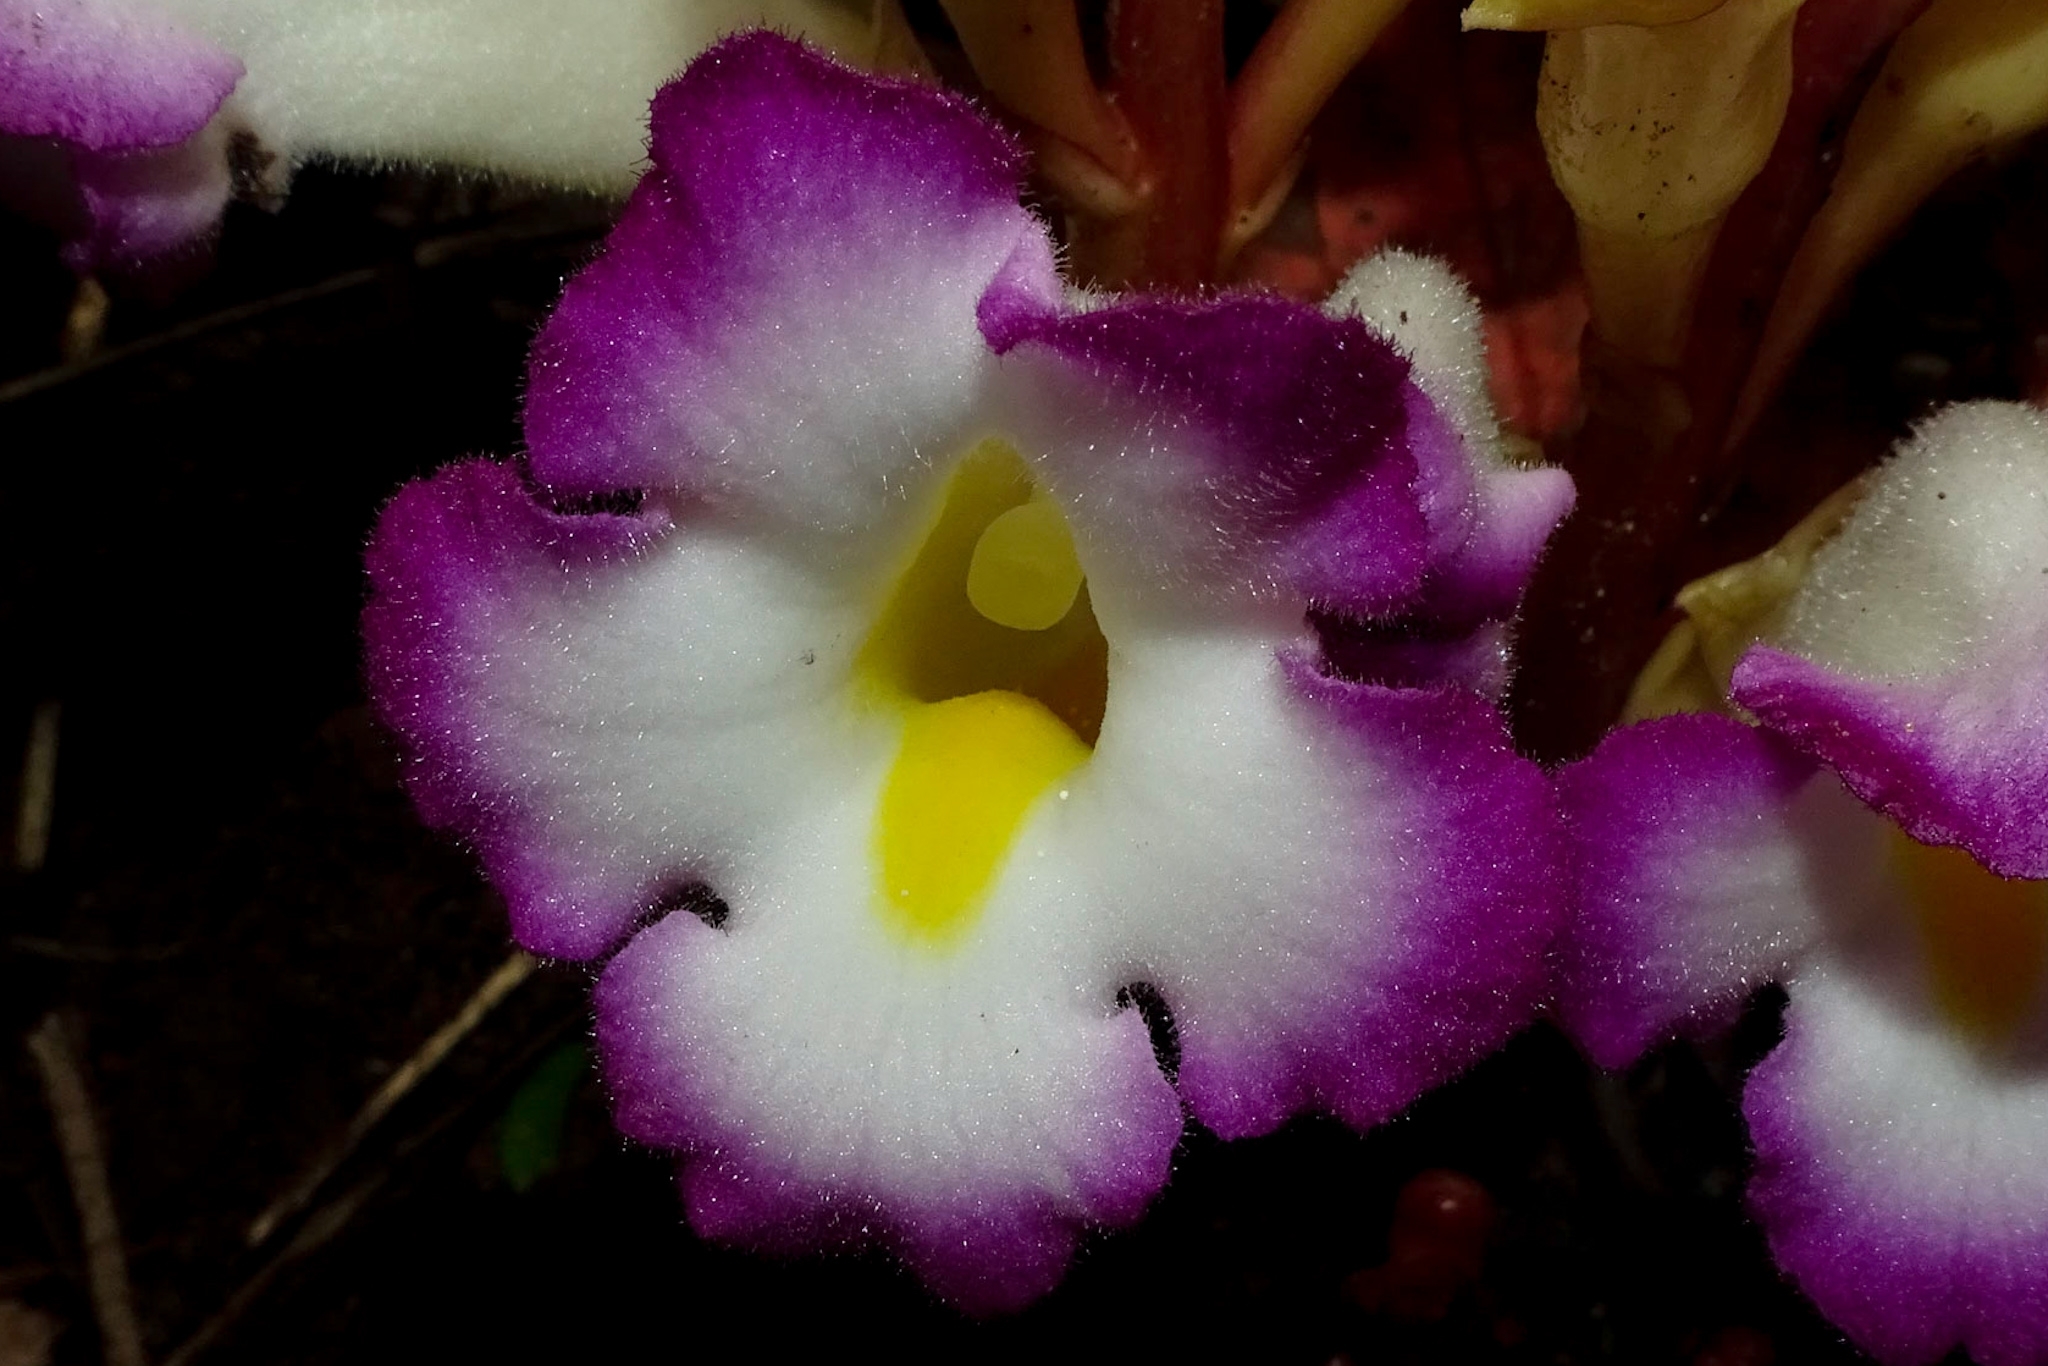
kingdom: Plantae
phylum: Tracheophyta
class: Magnoliopsida
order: Lamiales
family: Orobanchaceae
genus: Christisonia
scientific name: Christisonia tubulosa
